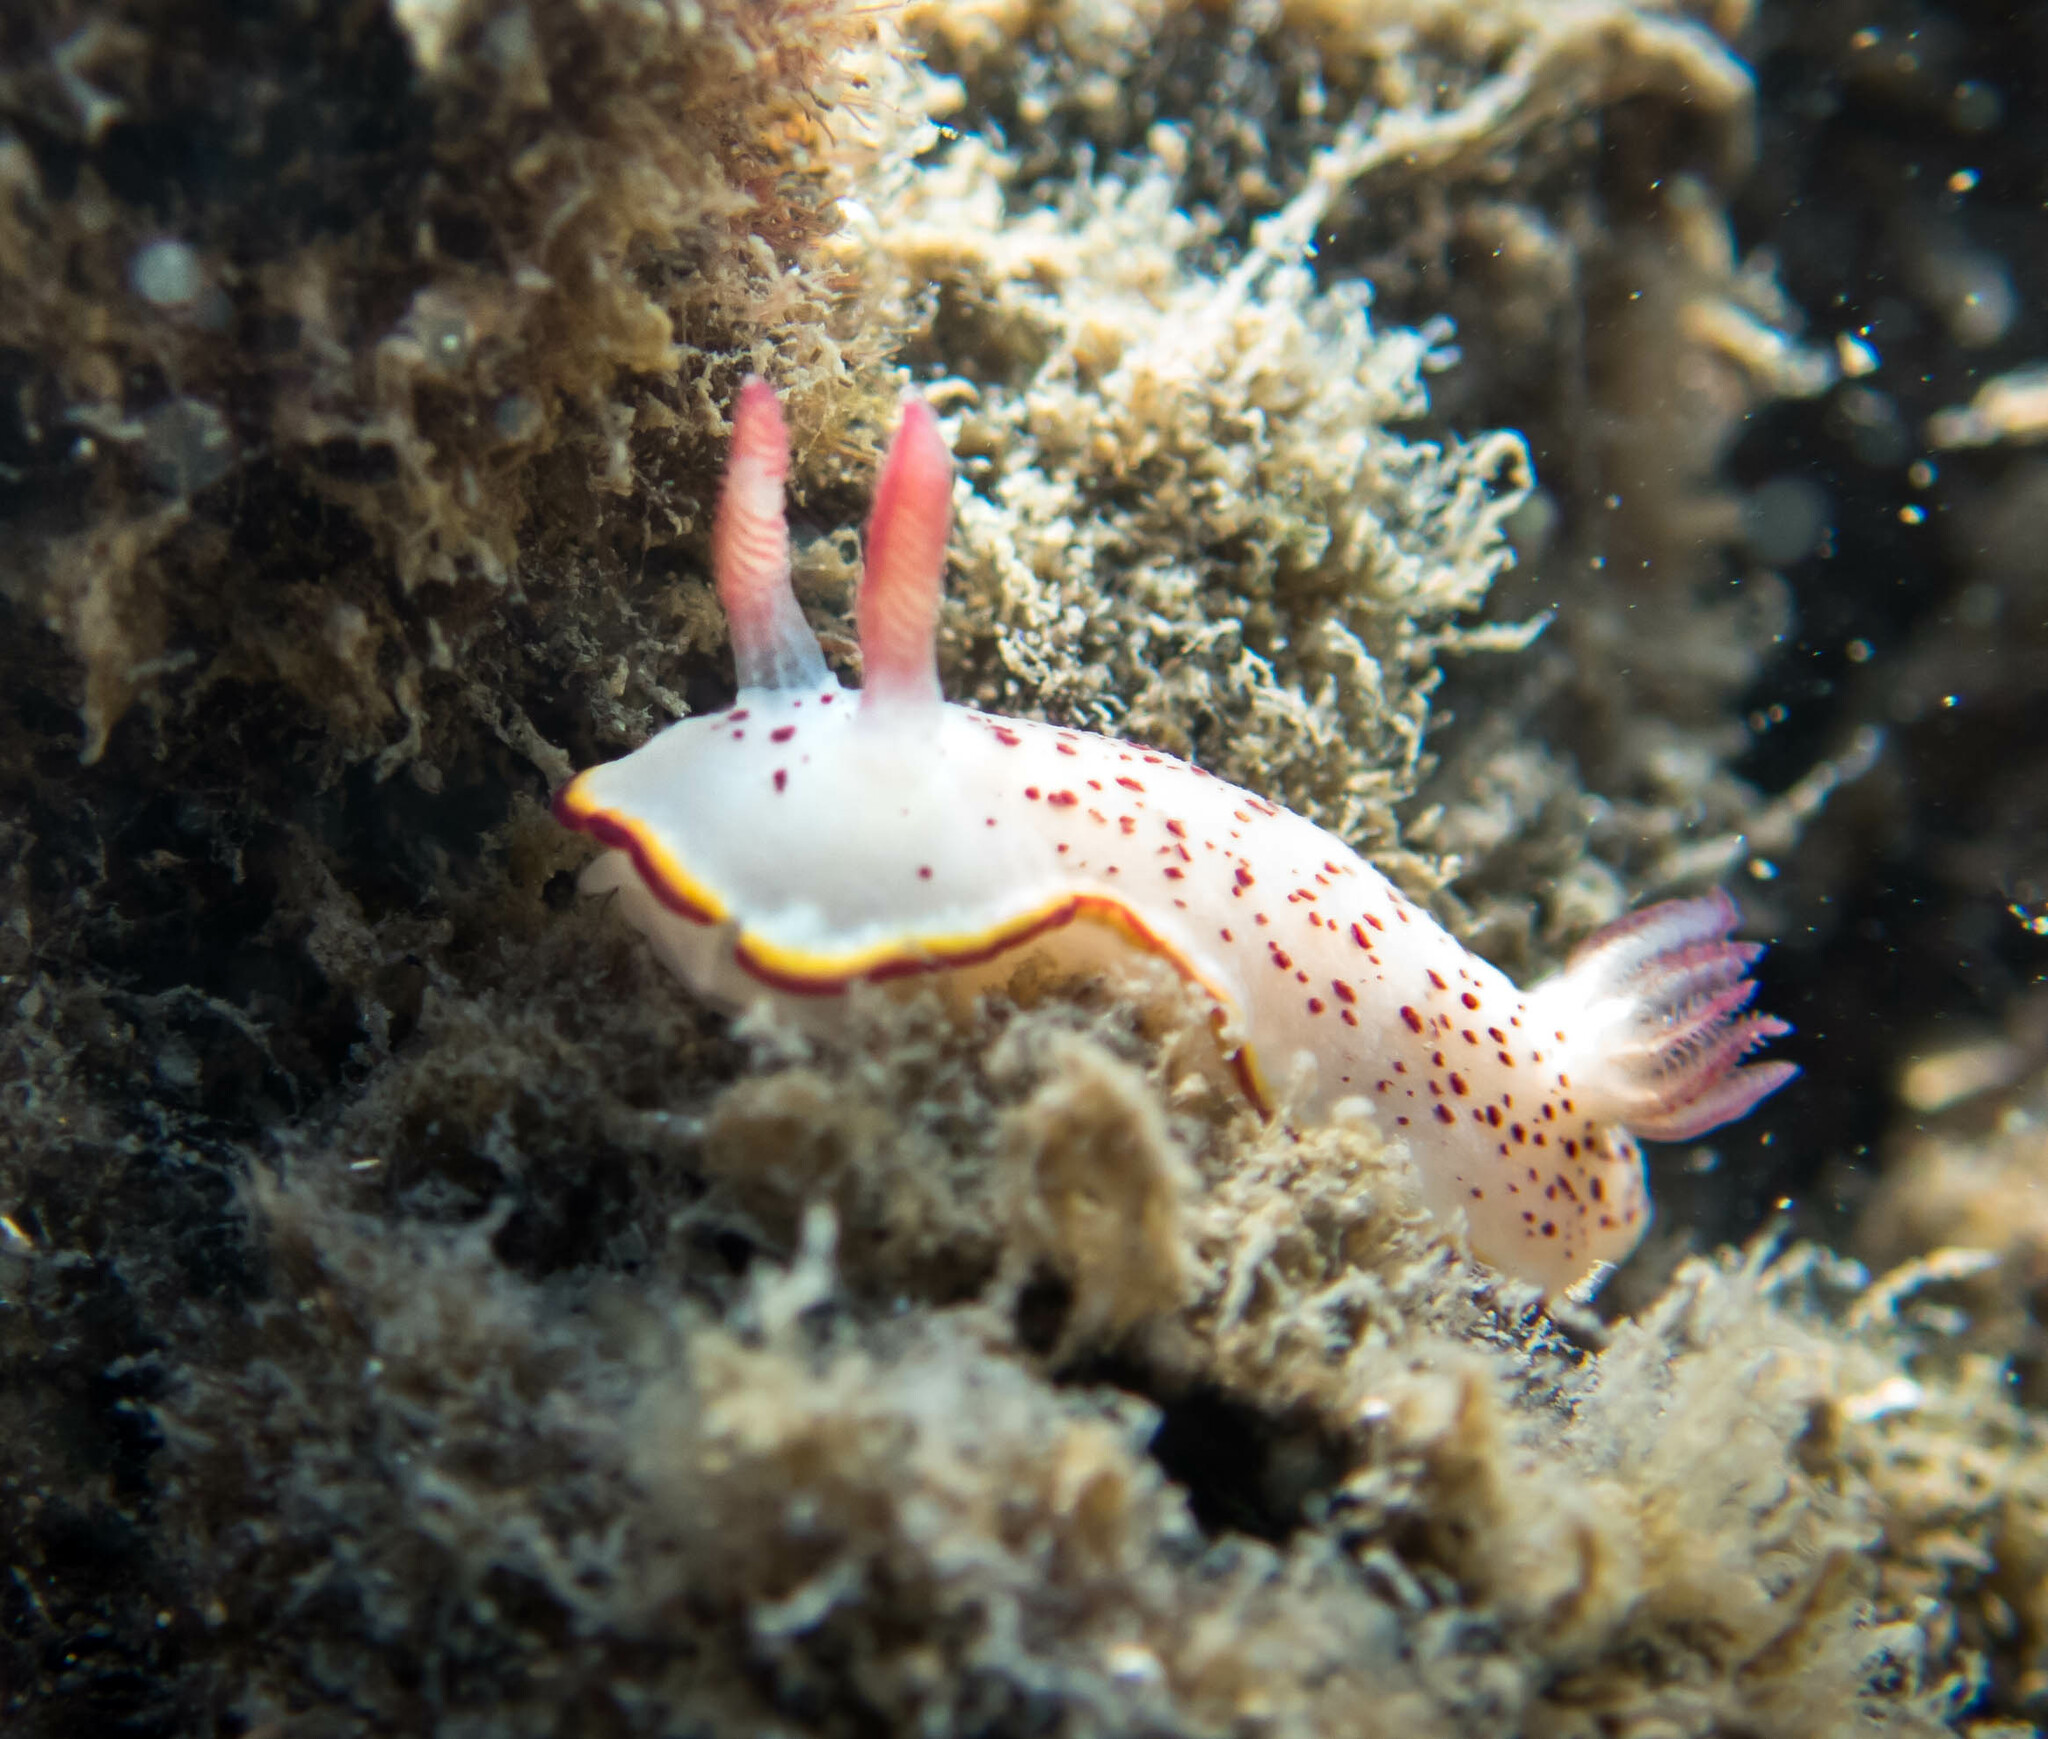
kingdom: Animalia
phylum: Mollusca
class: Gastropoda
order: Nudibranchia
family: Chromodorididae
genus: Goniobranchus
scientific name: Goniobranchus daphne
